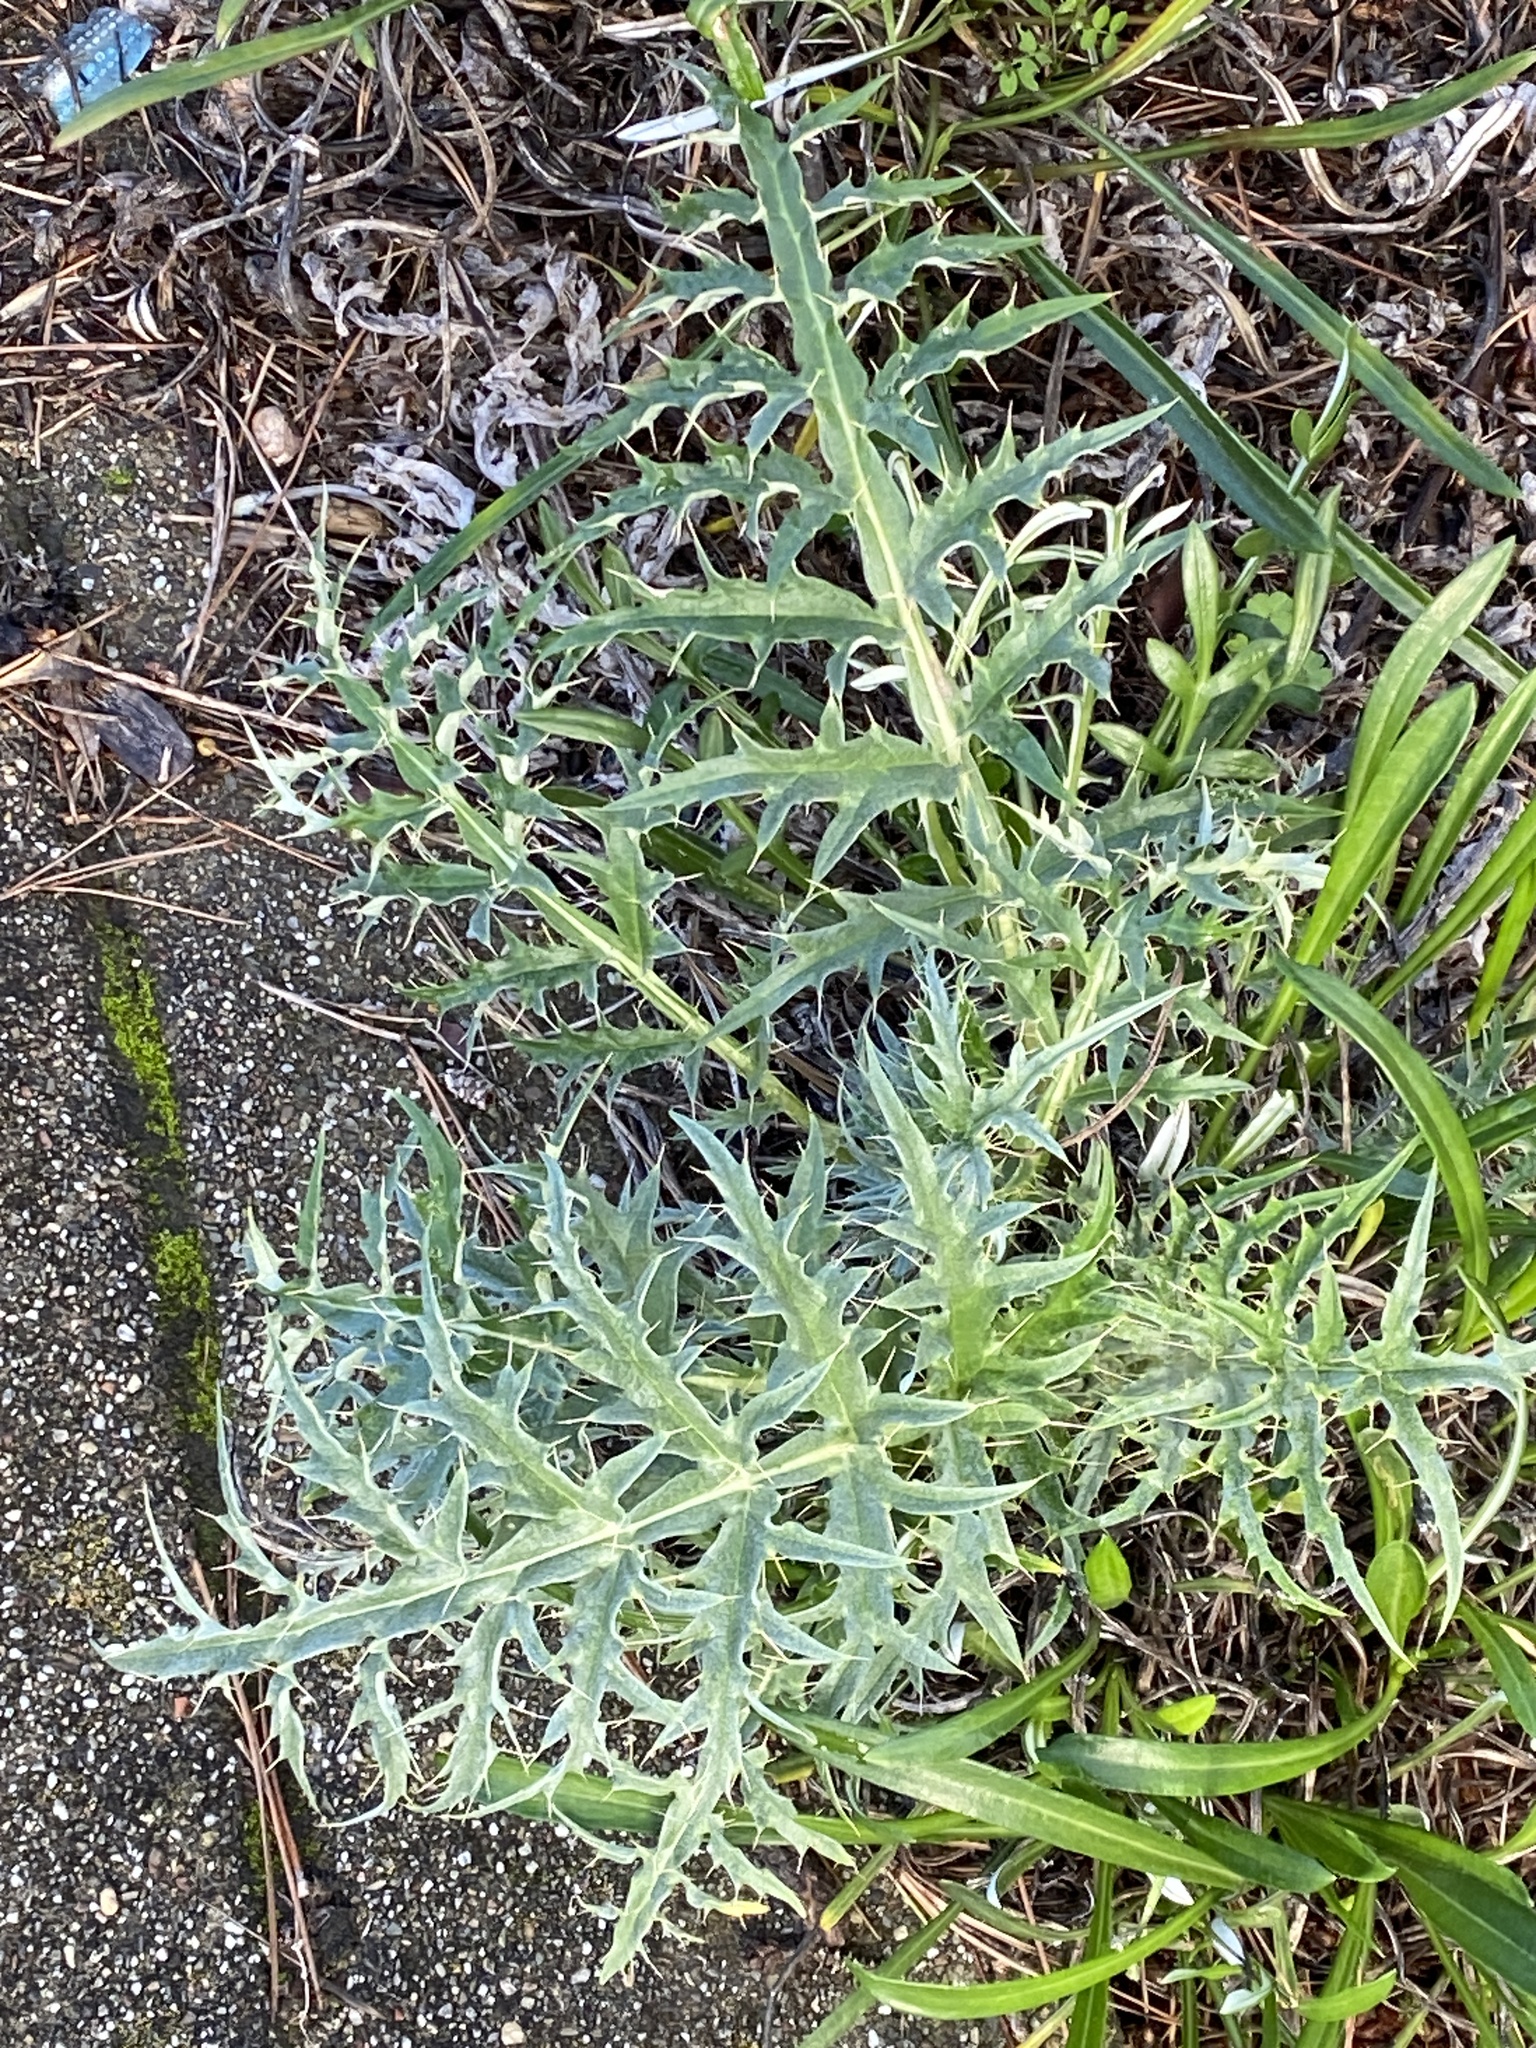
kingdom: Plantae
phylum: Tracheophyta
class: Magnoliopsida
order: Asterales
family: Asteraceae
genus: Cynara
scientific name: Cynara cardunculus
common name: Globe artichoke
